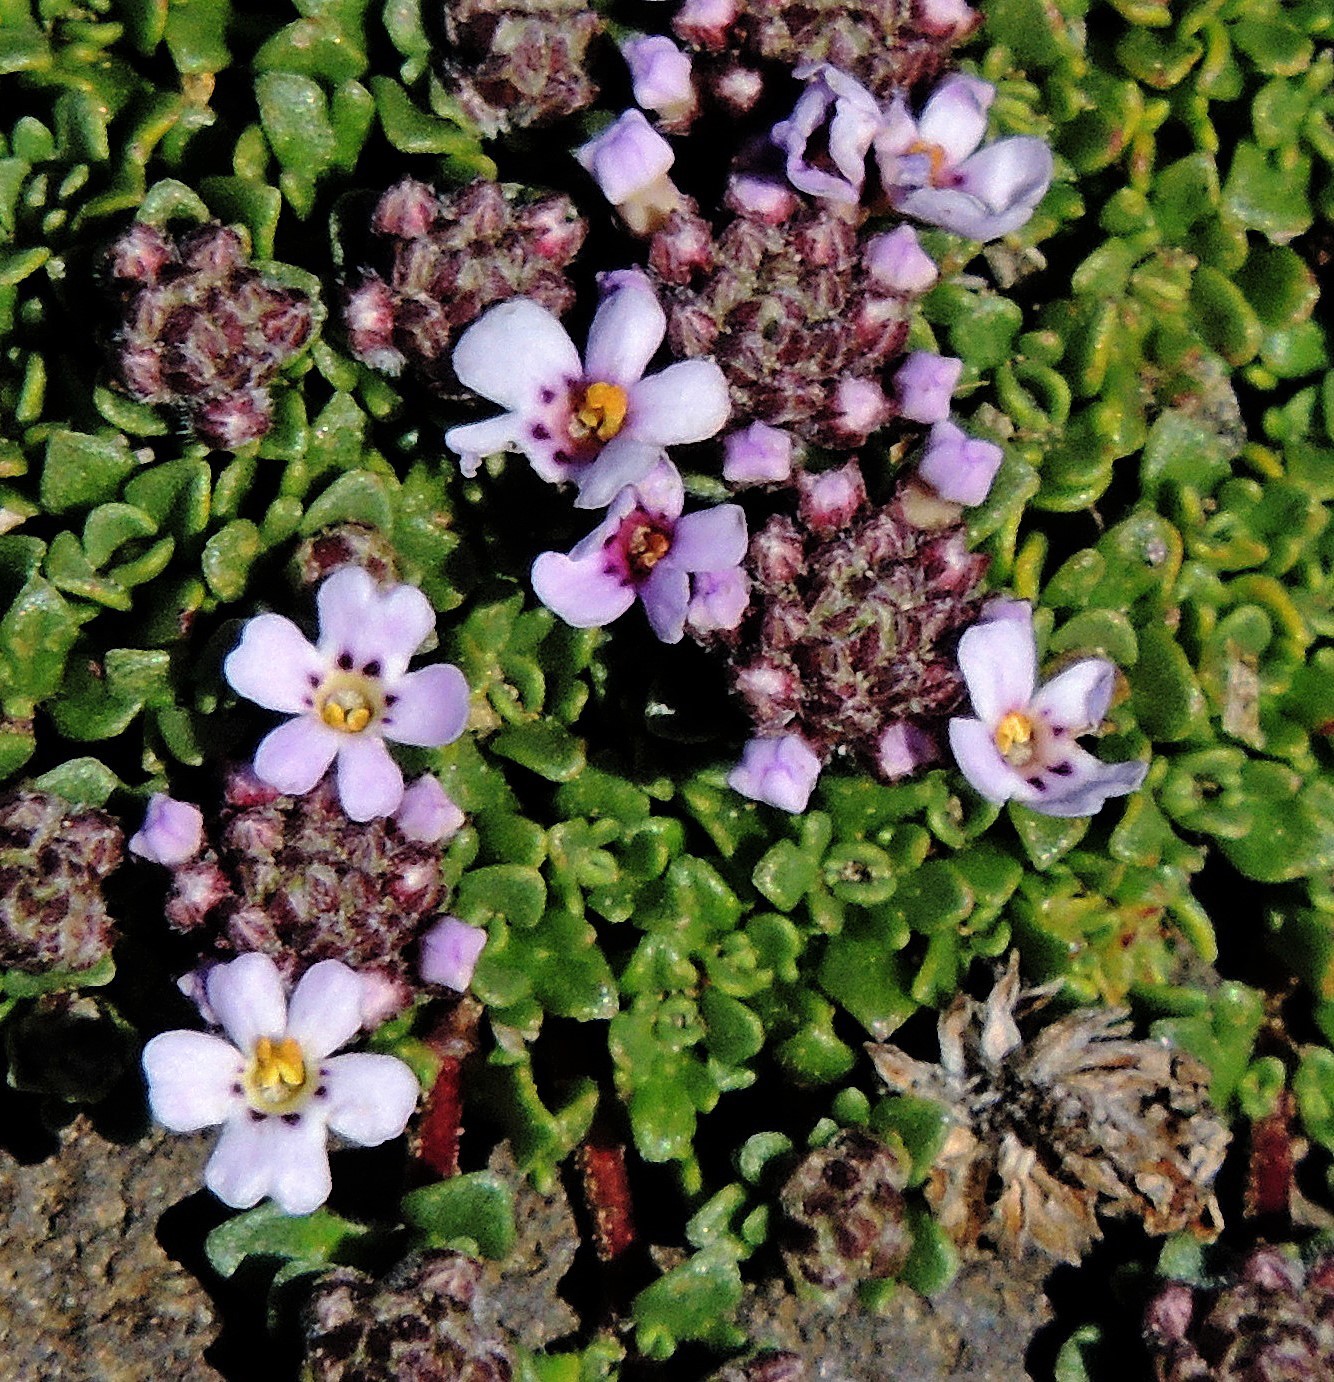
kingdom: Plantae
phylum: Tracheophyta
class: Magnoliopsida
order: Lamiales
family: Verbenaceae
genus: Junellia
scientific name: Junellia micrantha
